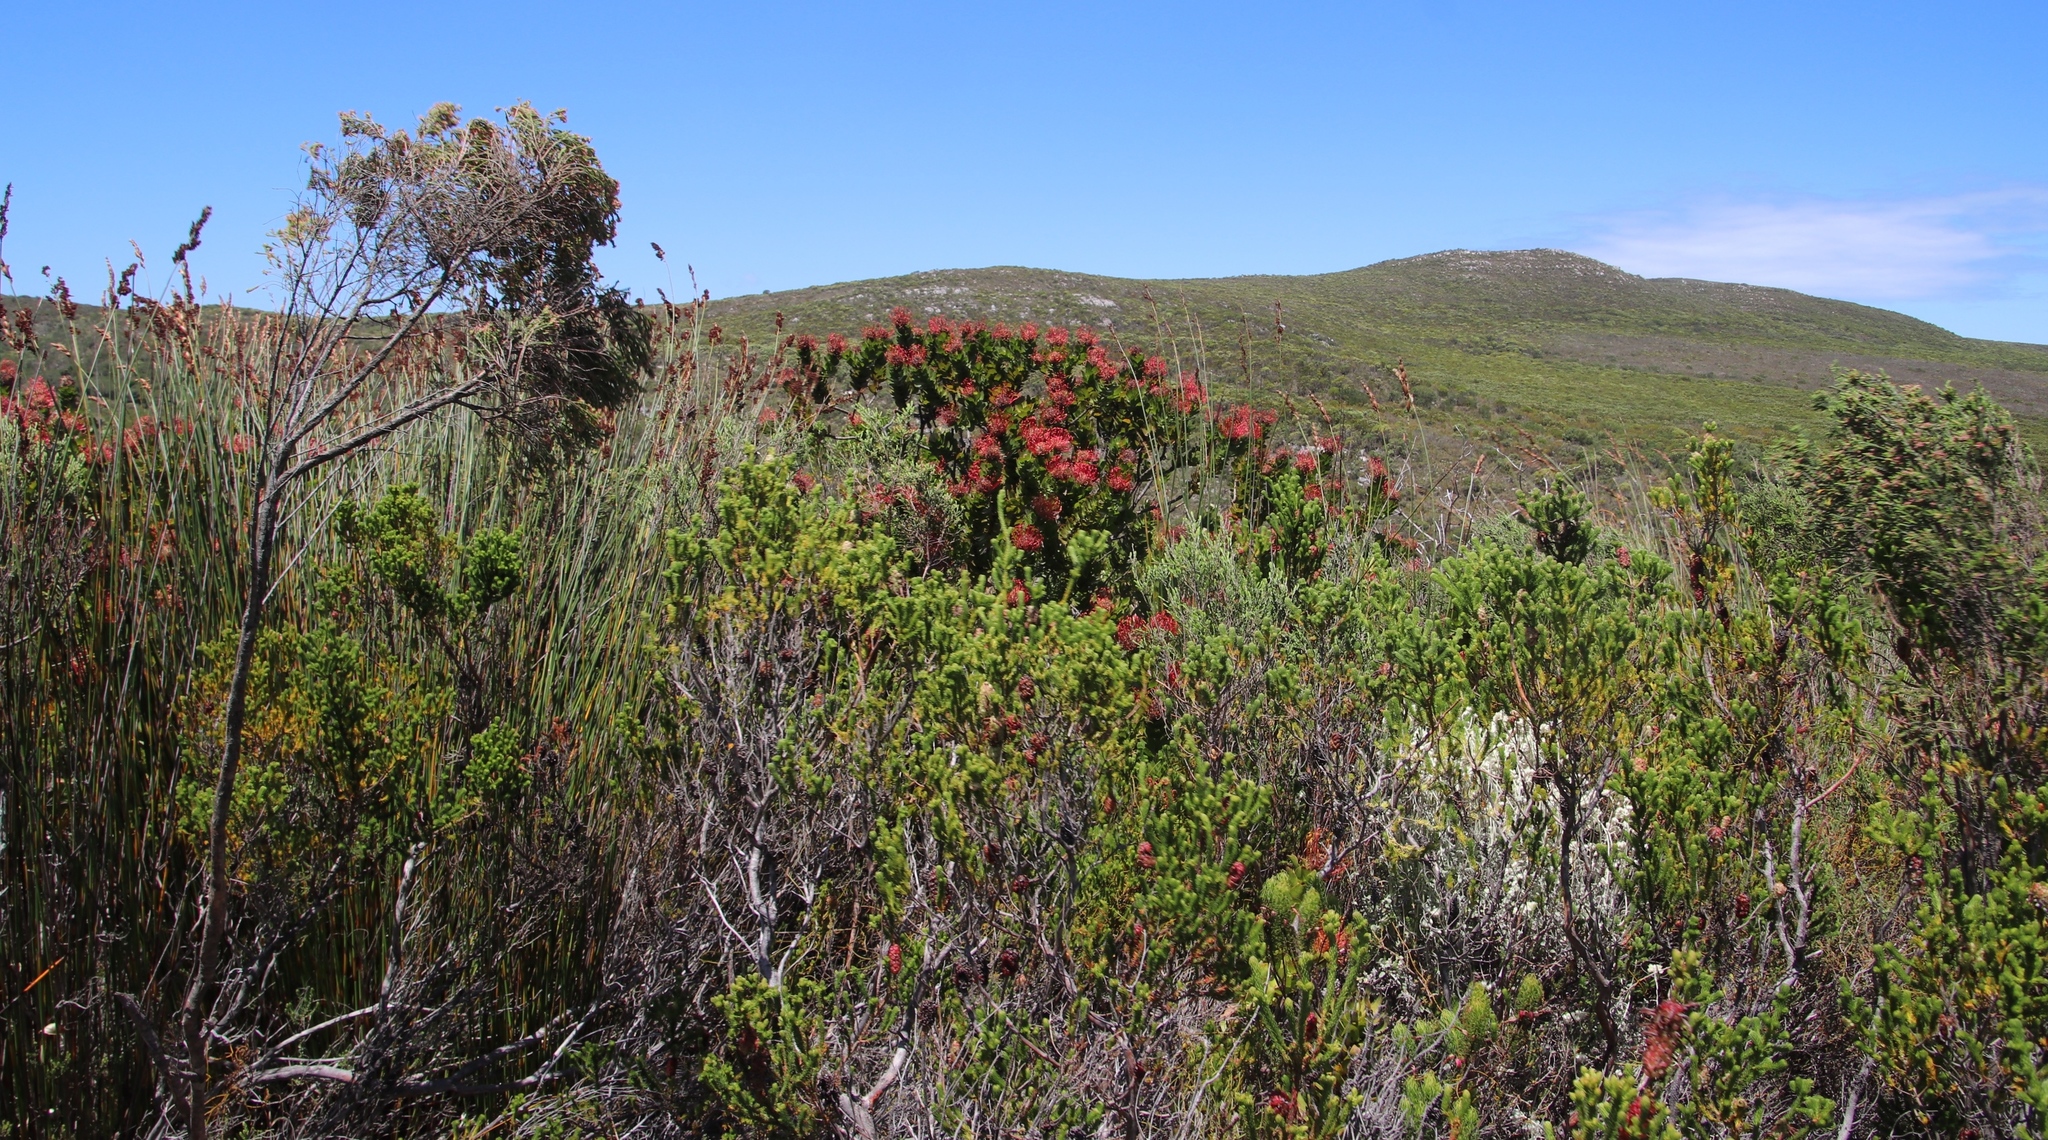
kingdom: Plantae
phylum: Tracheophyta
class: Magnoliopsida
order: Proteales
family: Proteaceae
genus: Leucospermum
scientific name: Leucospermum patersonii
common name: False tree pincushion
